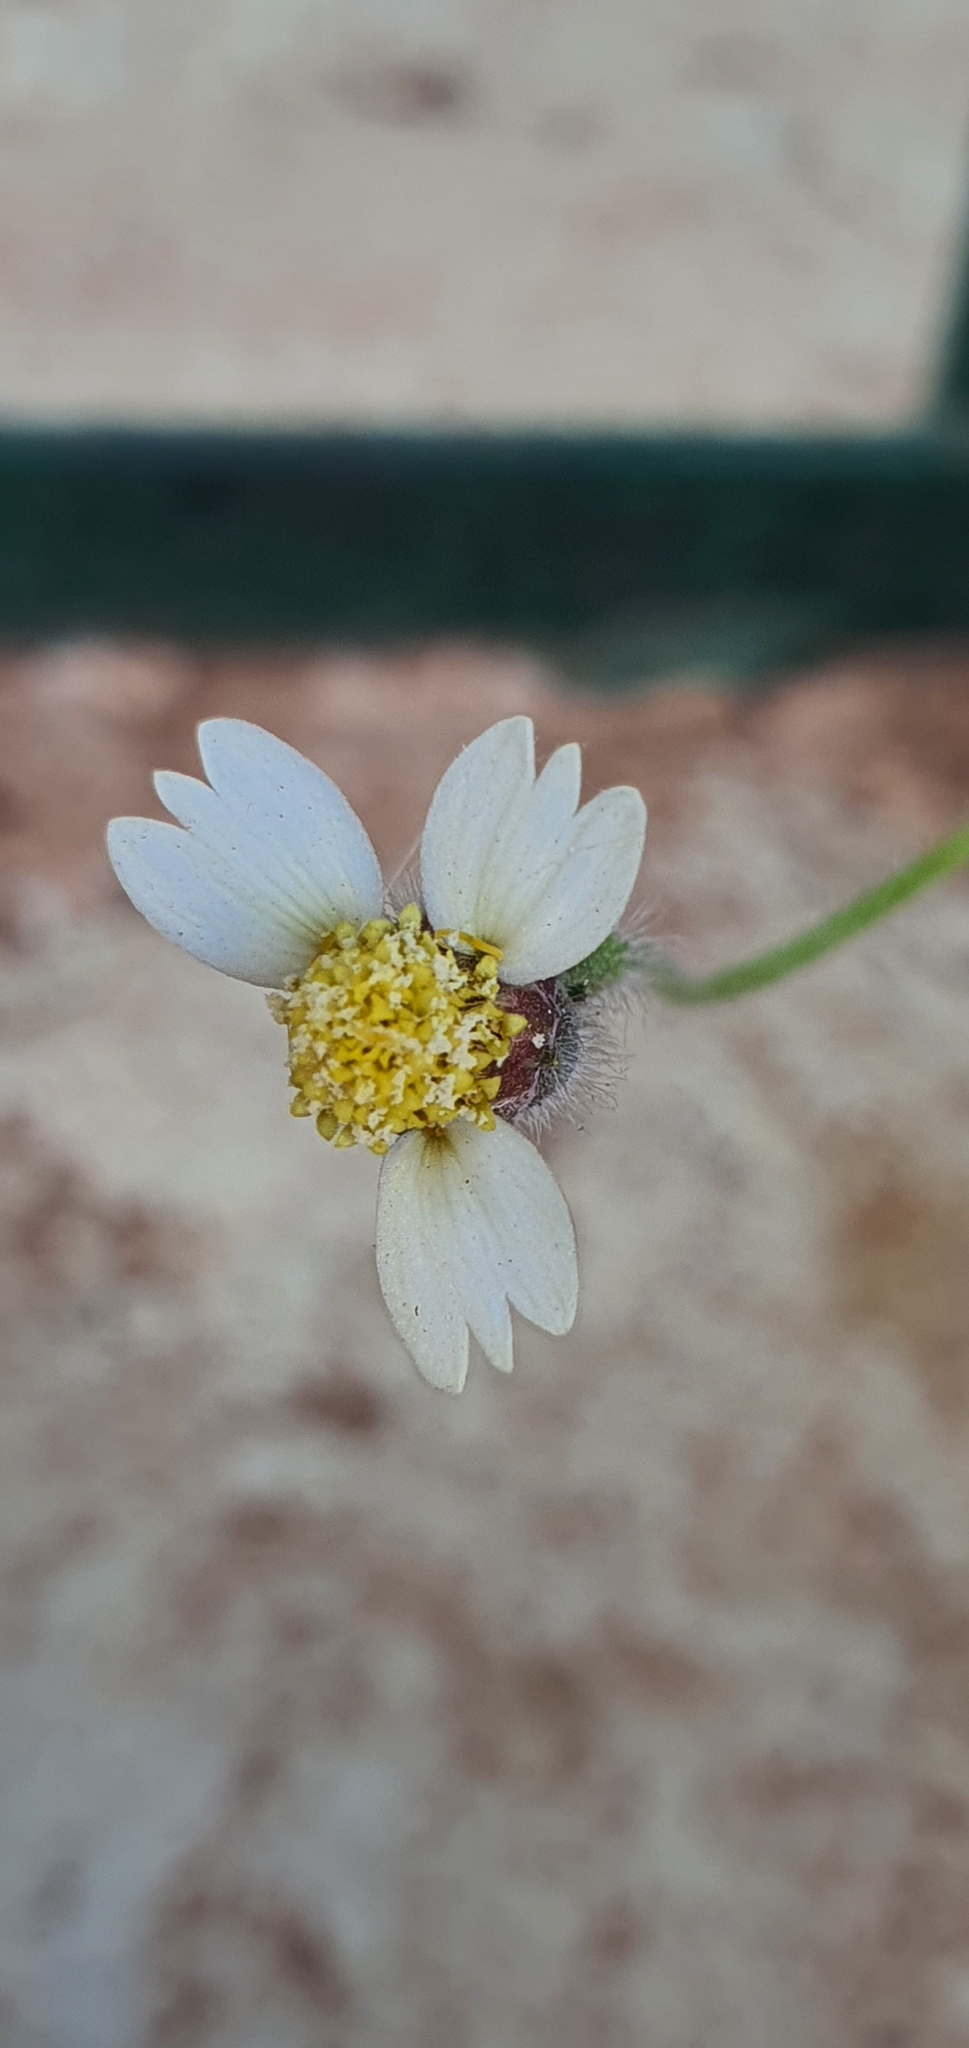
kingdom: Plantae
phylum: Tracheophyta
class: Magnoliopsida
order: Asterales
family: Asteraceae
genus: Tridax
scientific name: Tridax procumbens
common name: Coatbuttons
